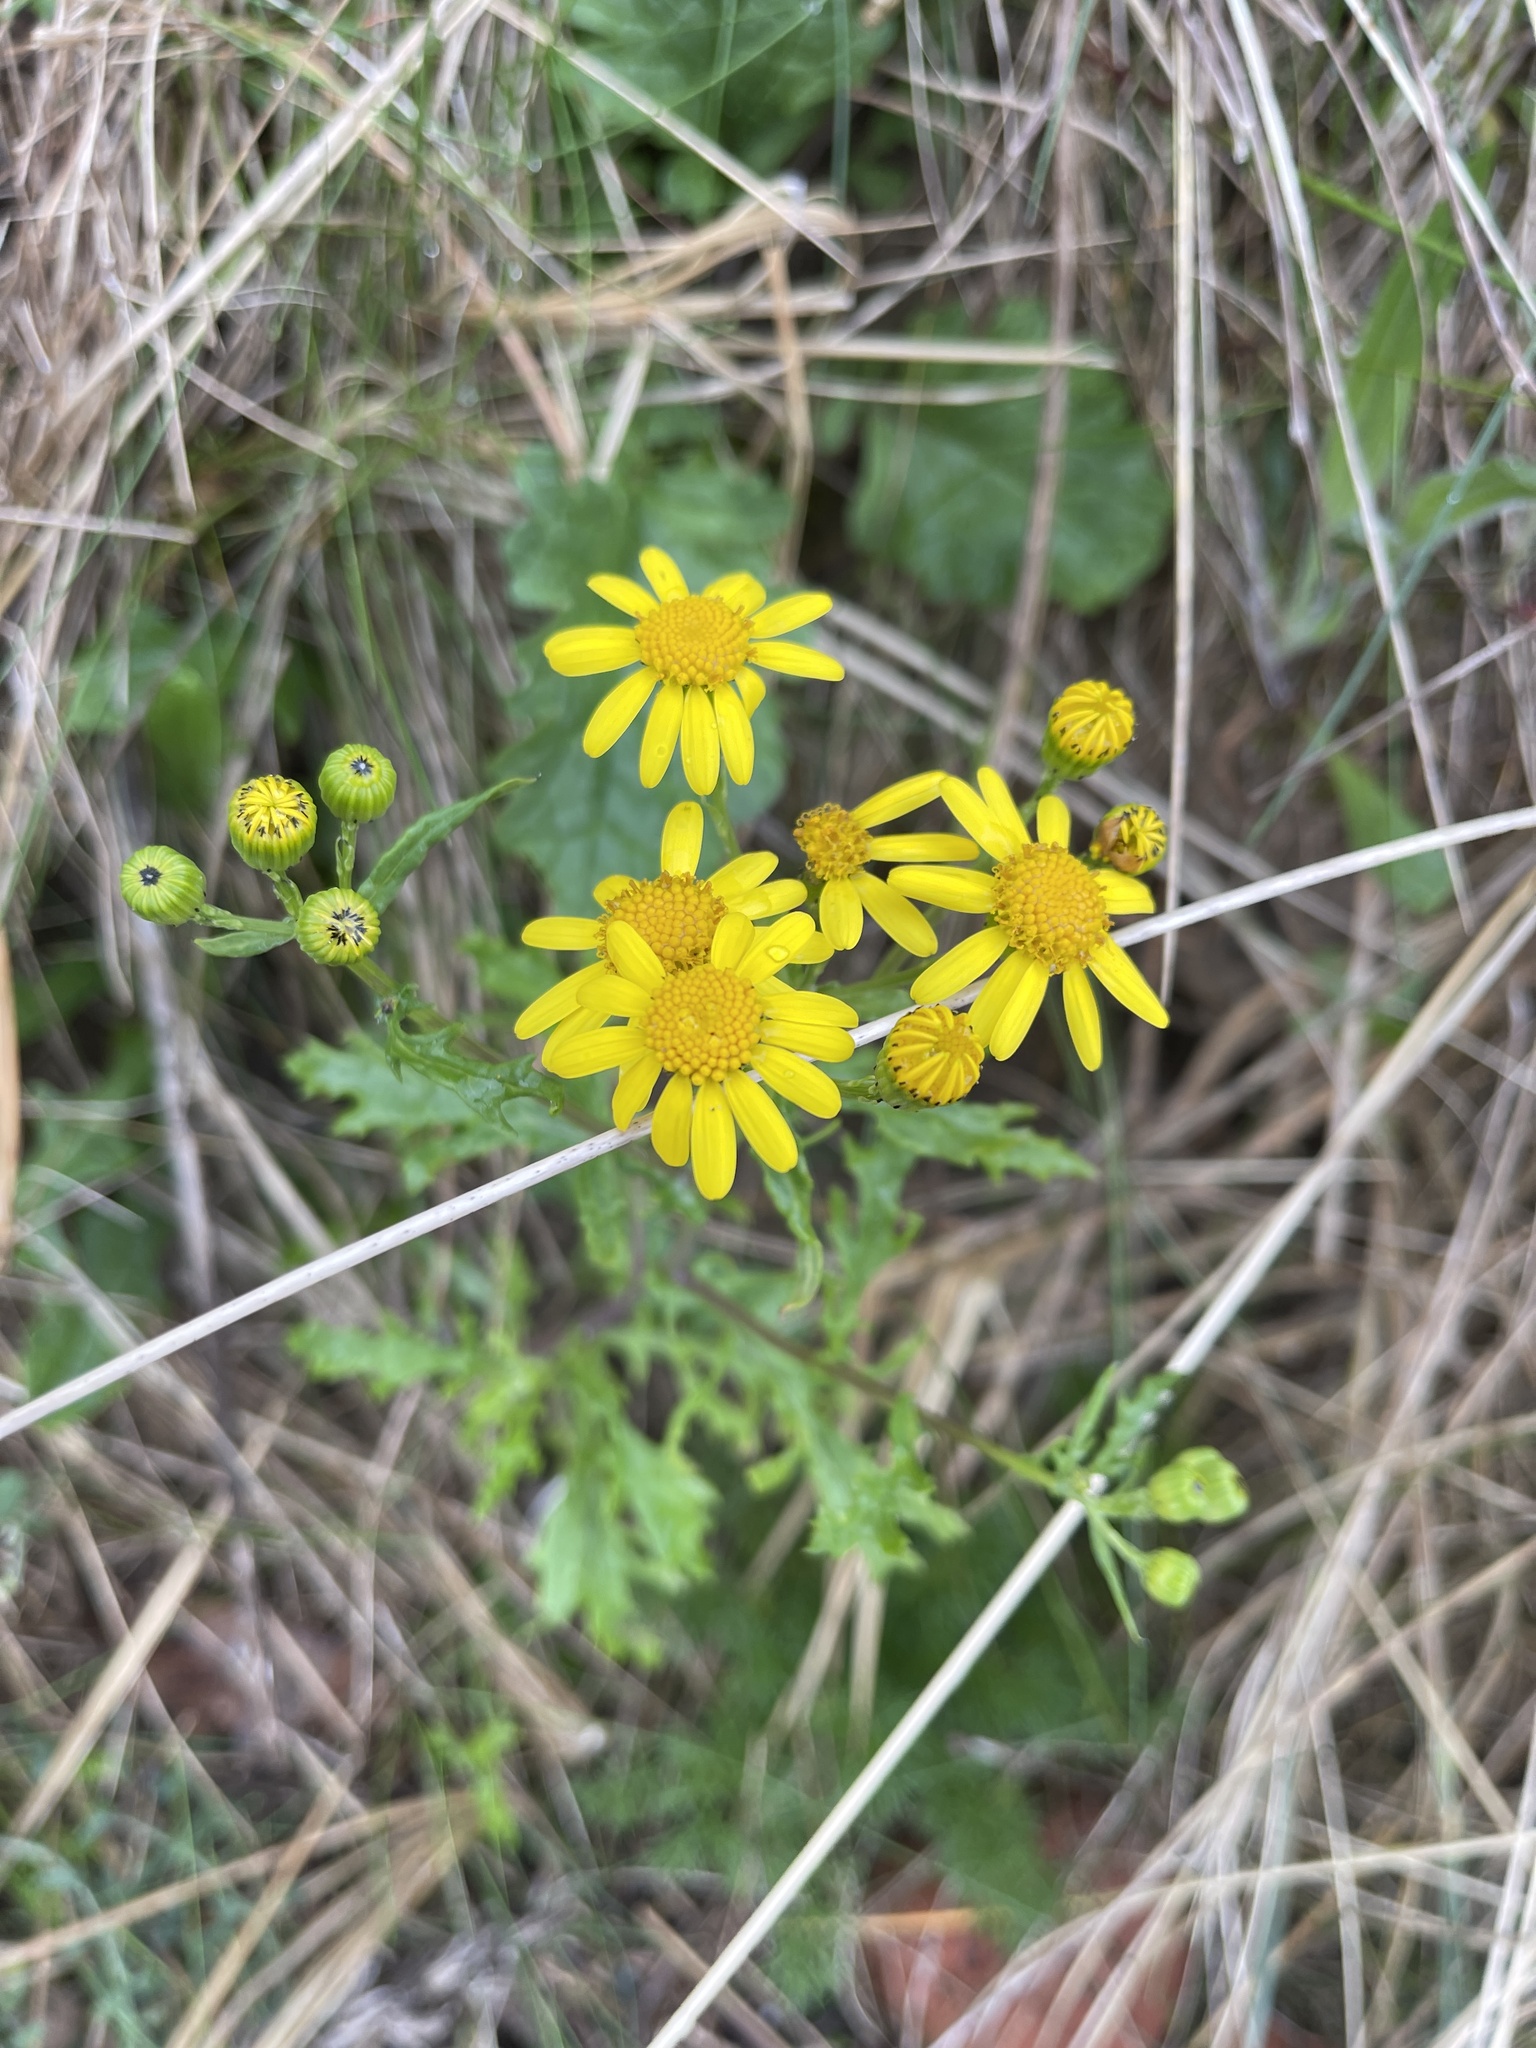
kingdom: Plantae
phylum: Tracheophyta
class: Magnoliopsida
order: Asterales
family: Asteraceae
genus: Senecio
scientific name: Senecio squalidus
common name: Oxford ragwort
